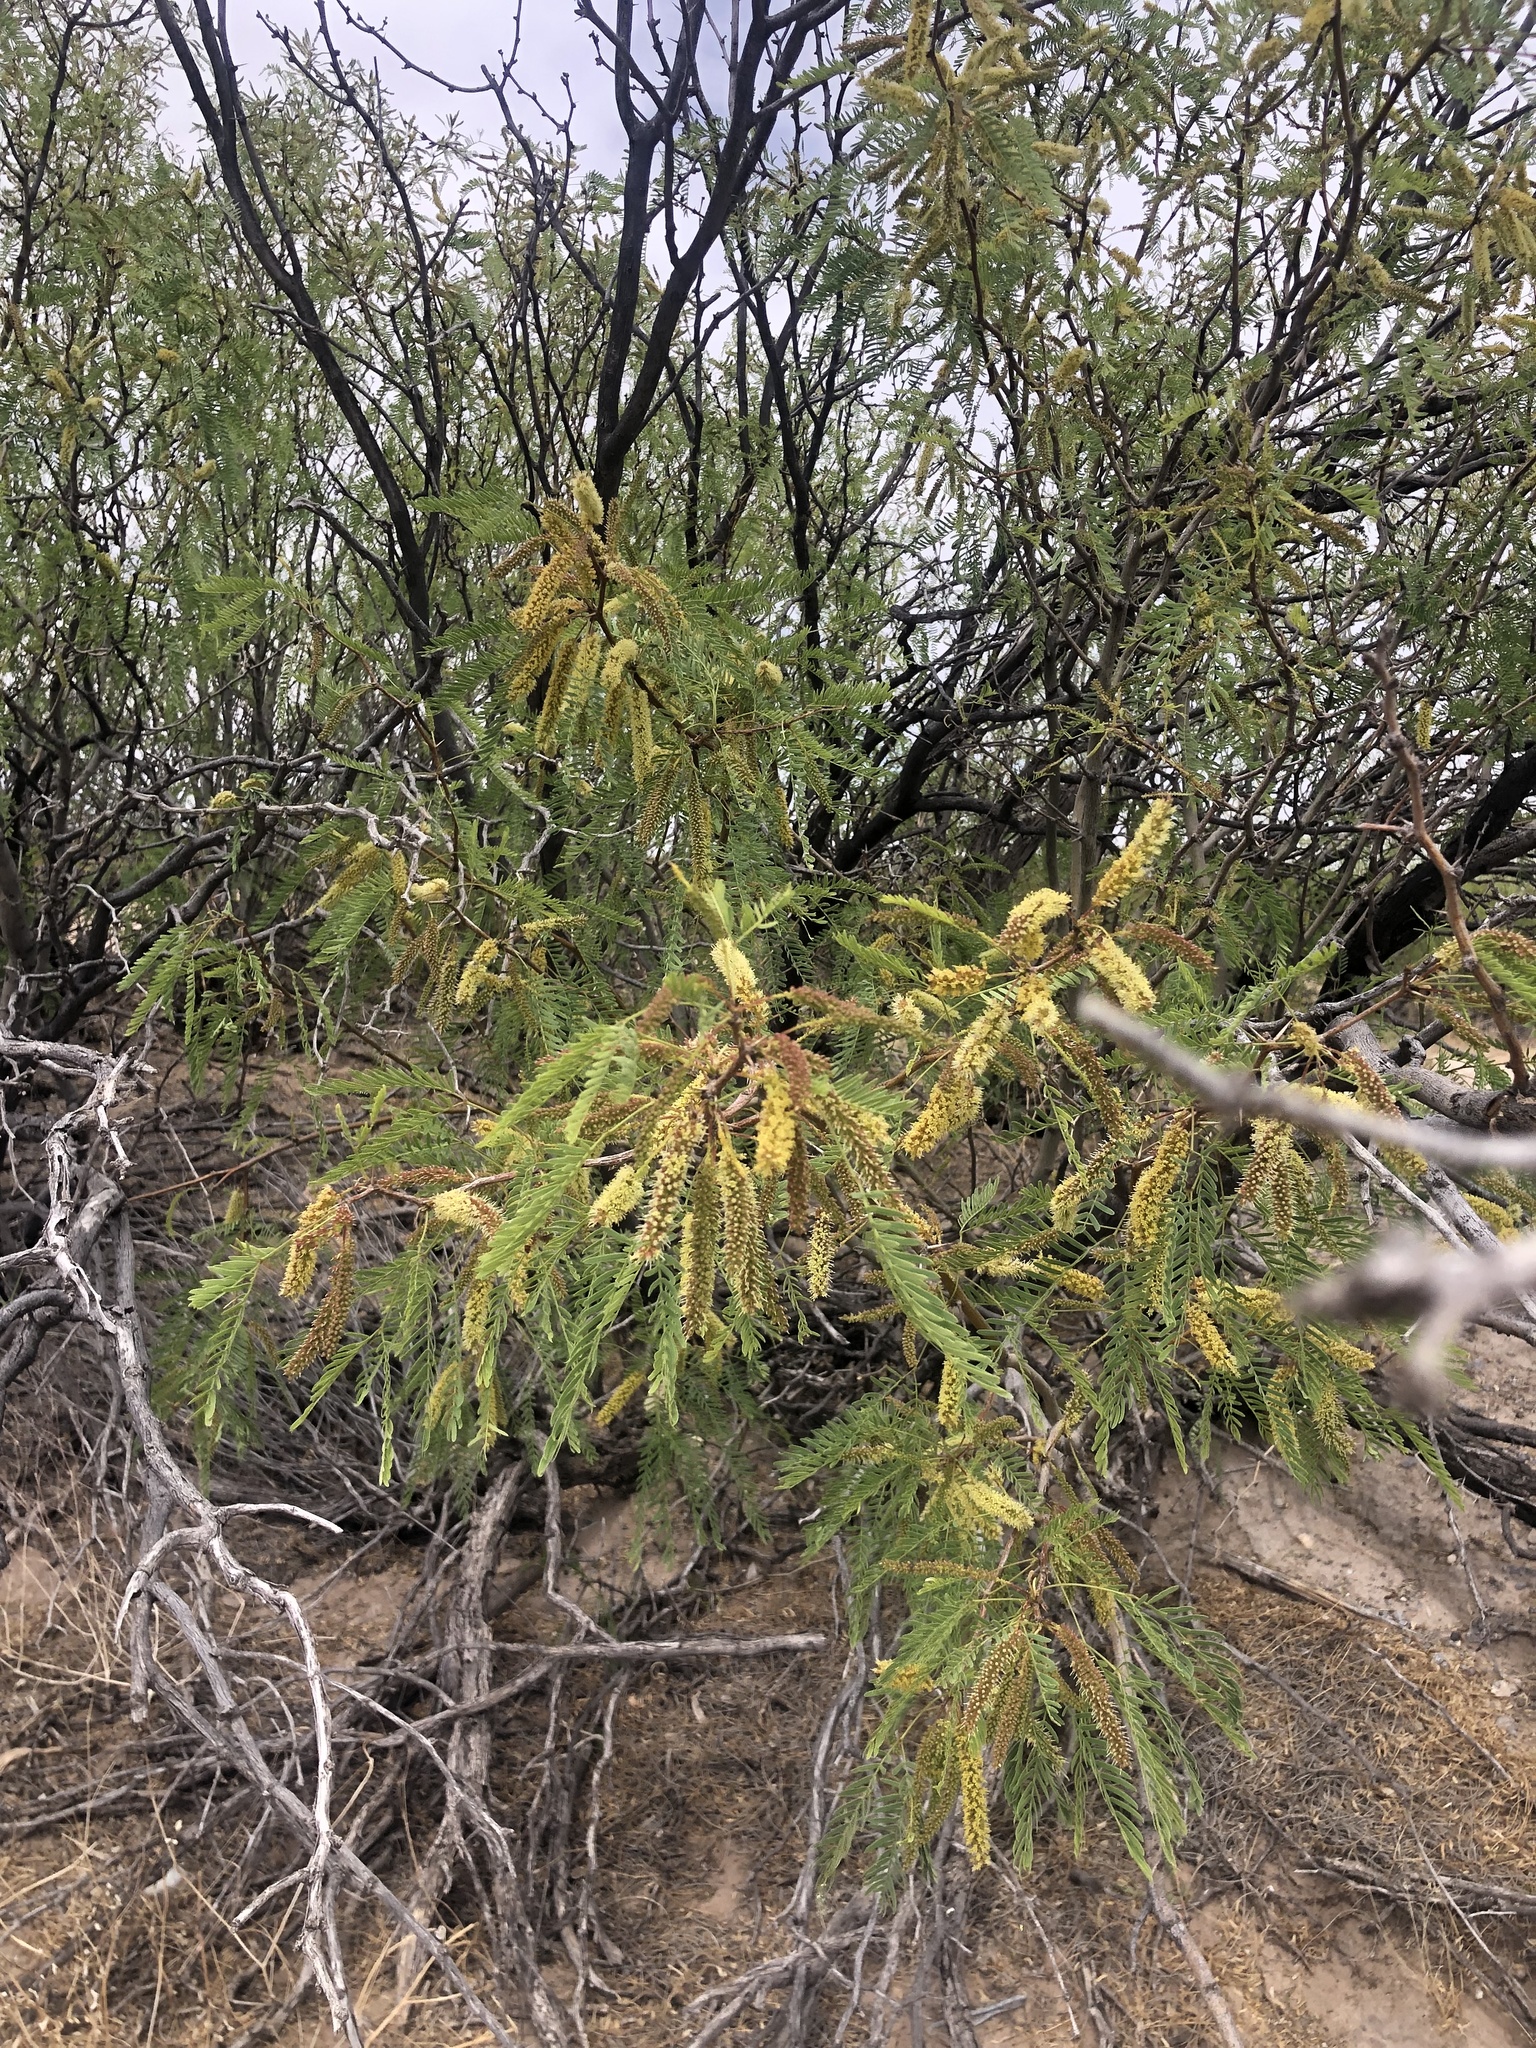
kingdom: Plantae
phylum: Tracheophyta
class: Magnoliopsida
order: Fabales
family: Fabaceae
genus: Prosopis
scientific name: Prosopis pubescens
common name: Screw-bean
